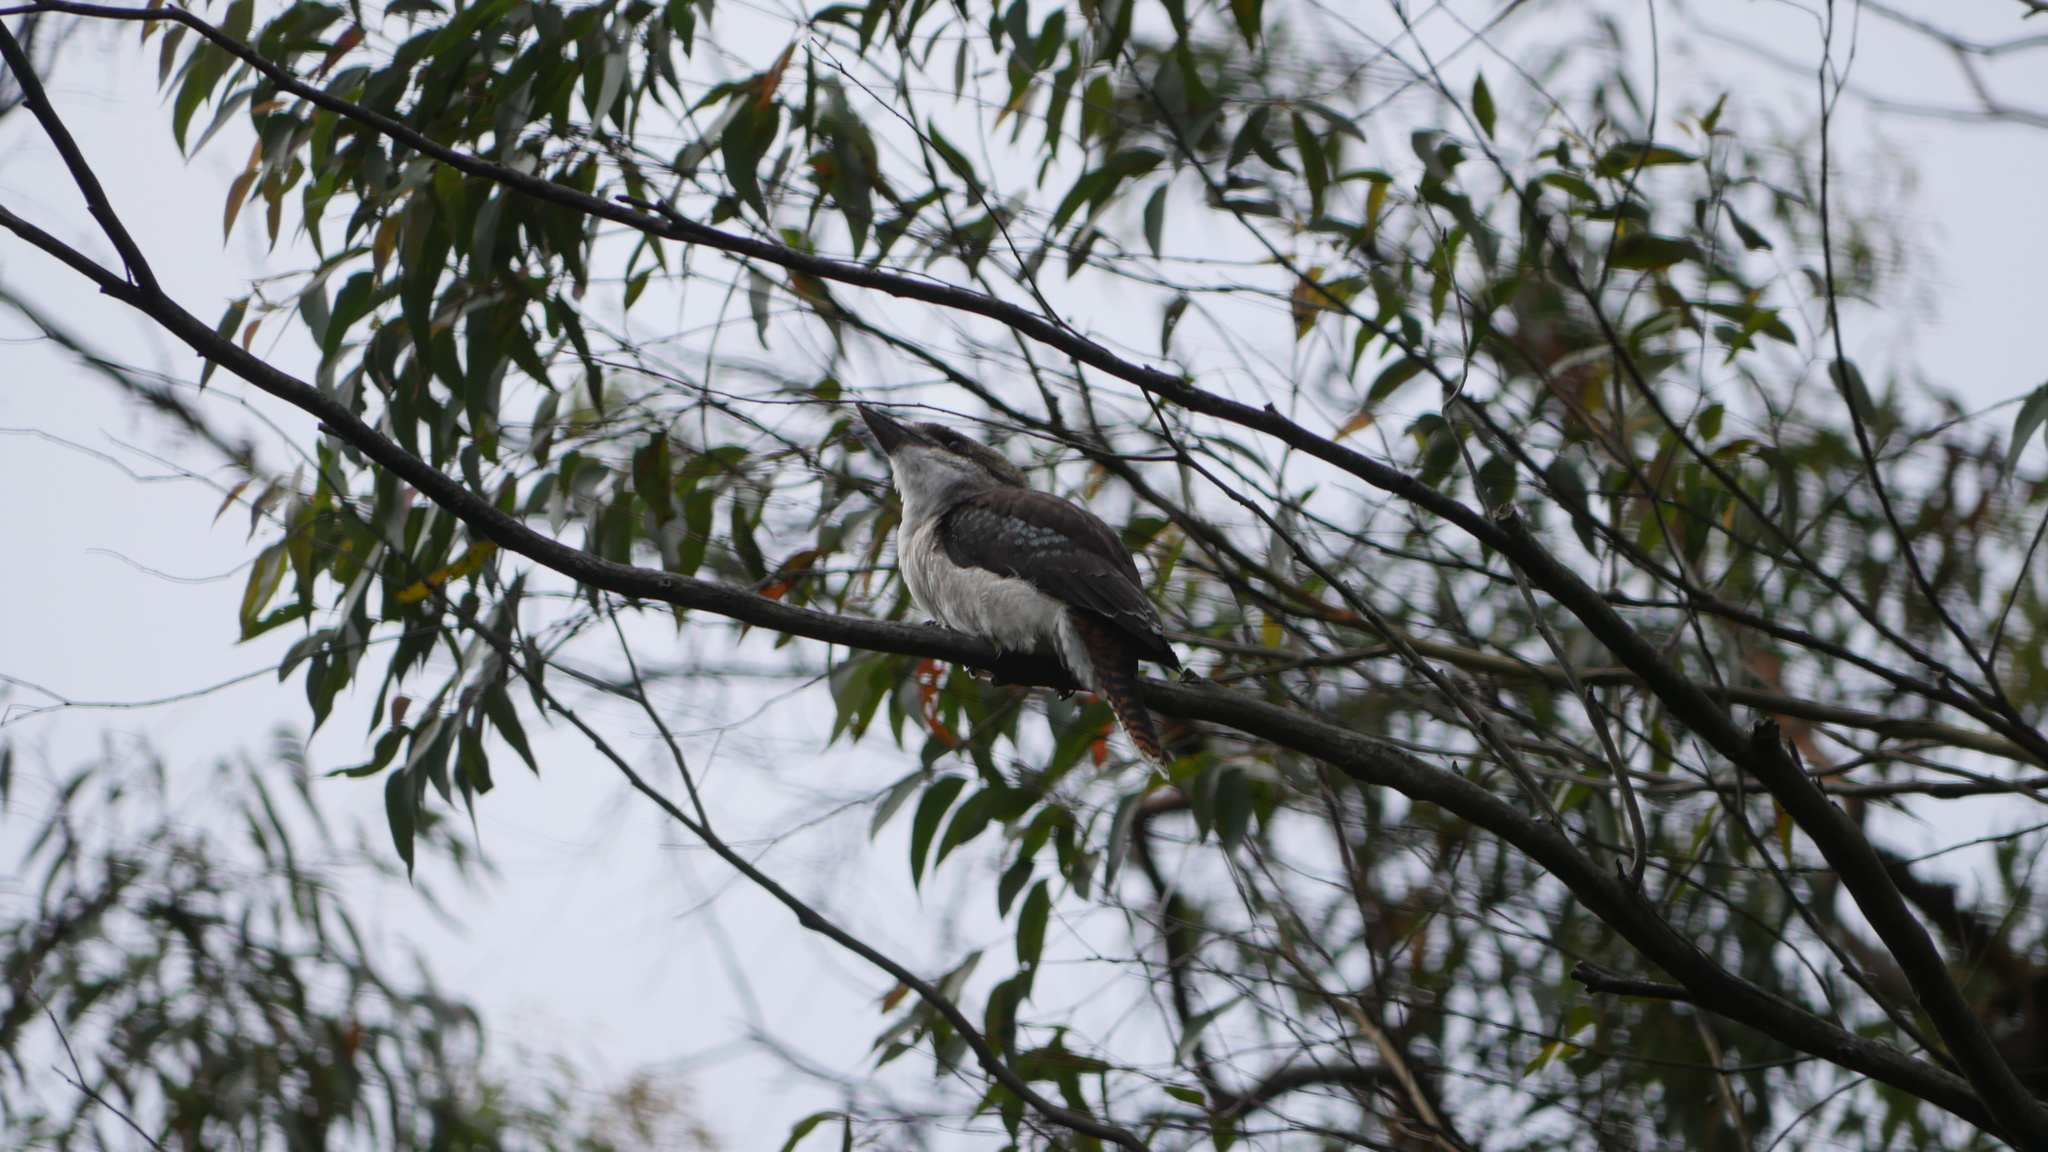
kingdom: Animalia
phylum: Chordata
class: Aves
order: Coraciiformes
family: Alcedinidae
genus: Dacelo
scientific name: Dacelo novaeguineae
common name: Laughing kookaburra
